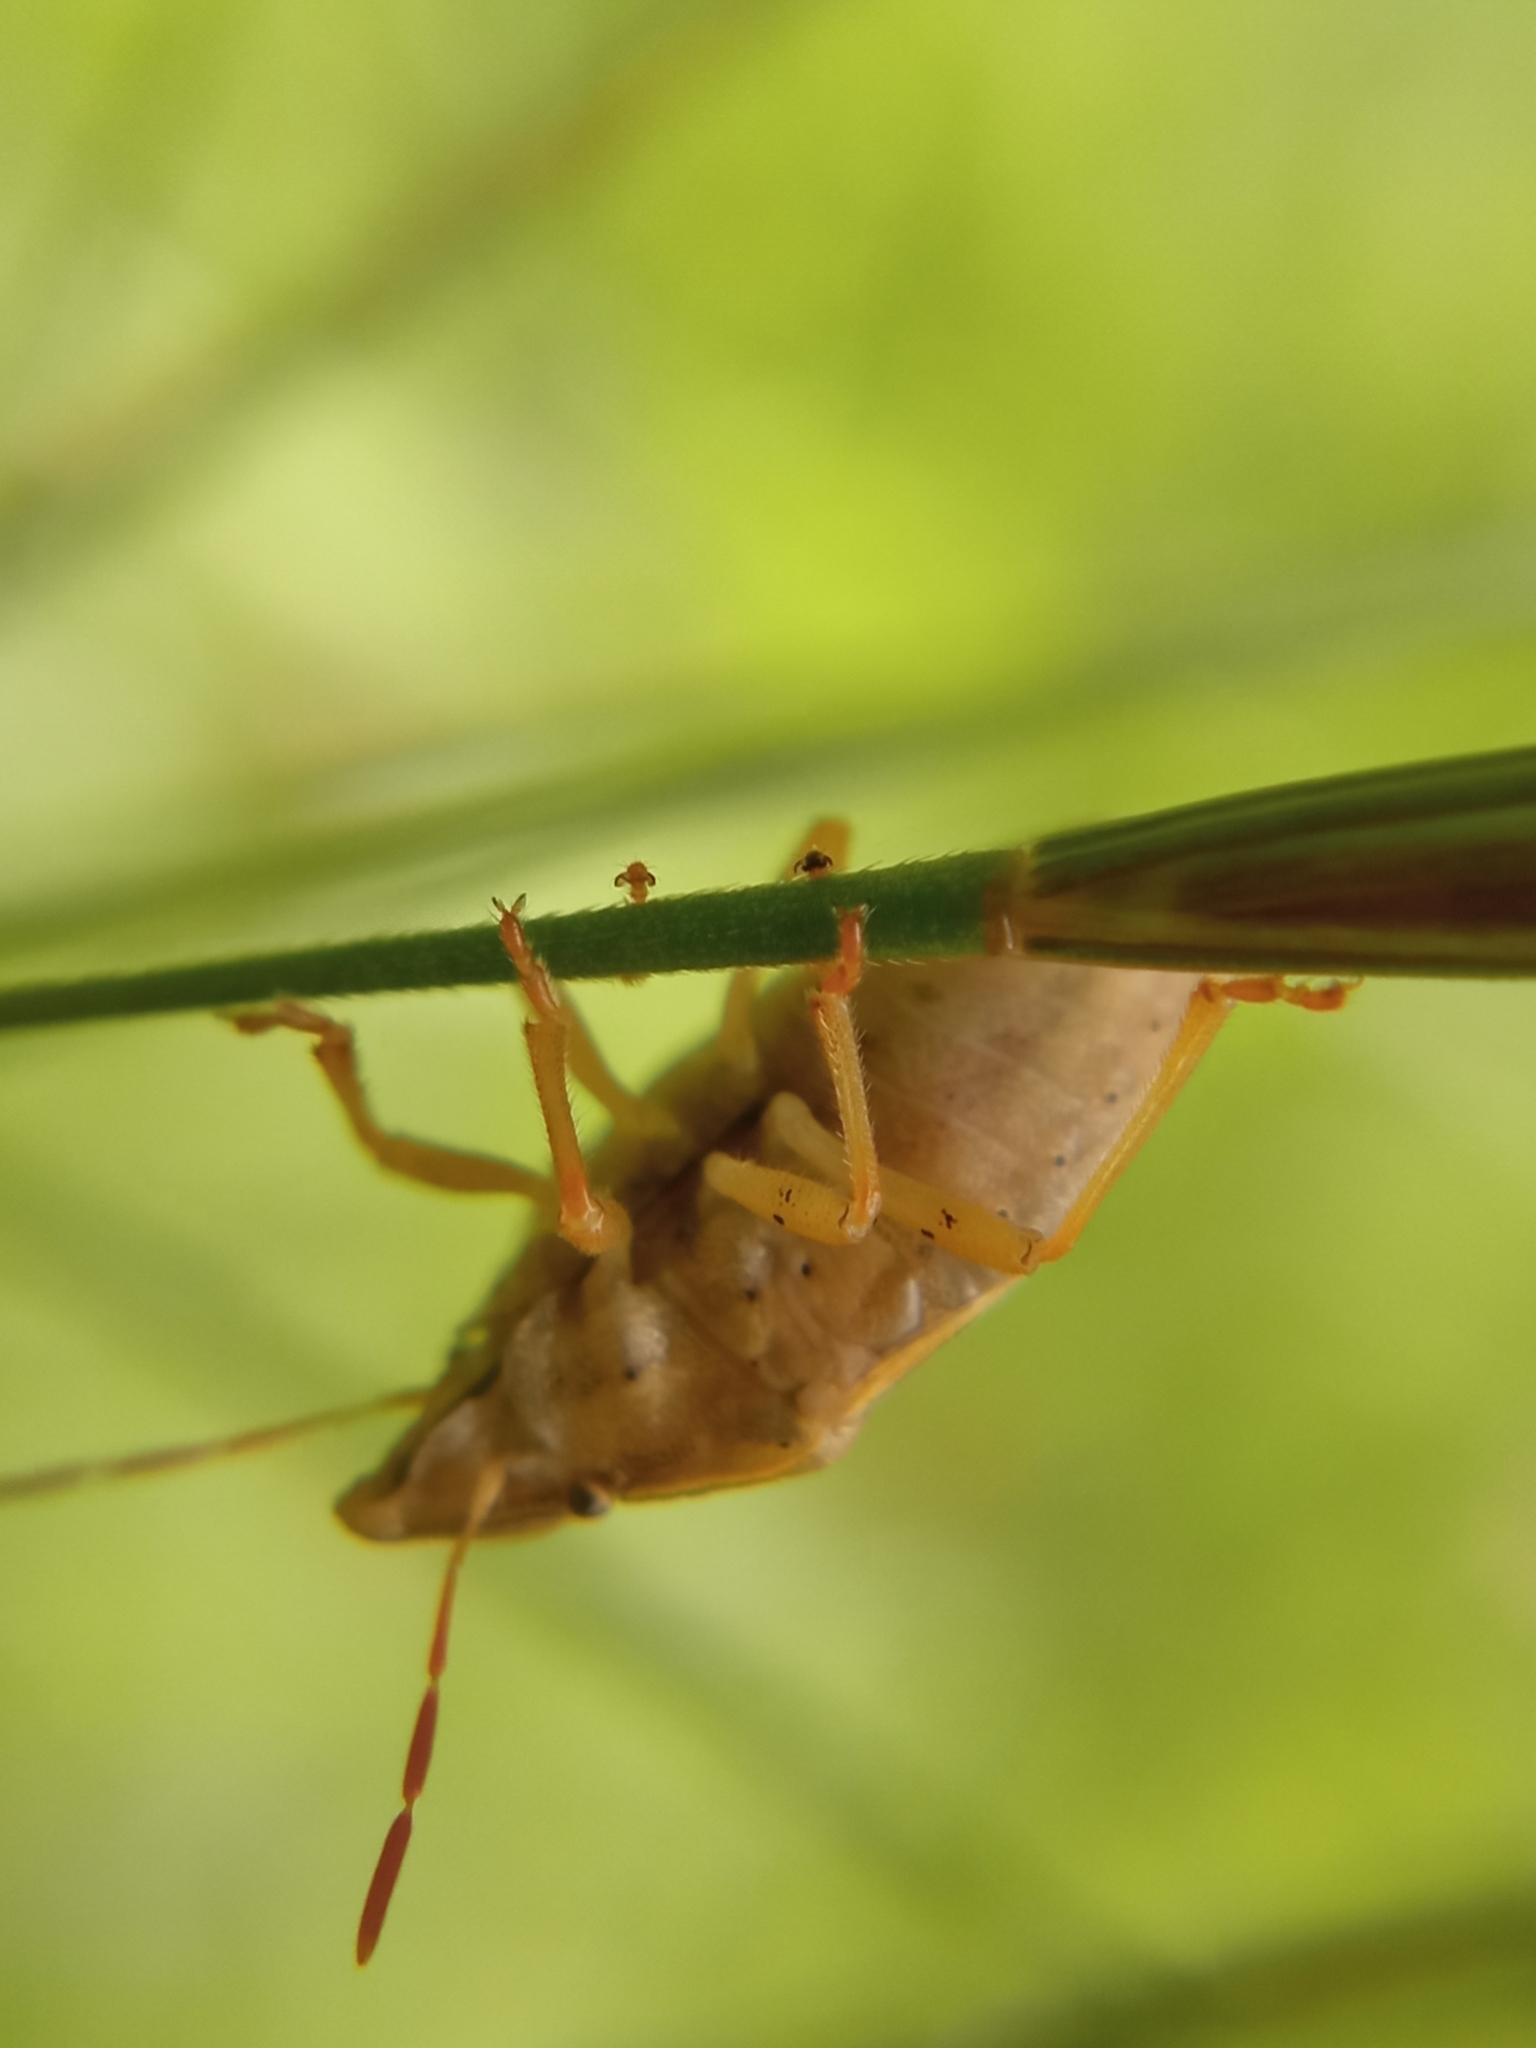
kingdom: Animalia
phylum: Arthropoda
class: Insecta
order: Hemiptera
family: Pentatomidae
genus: Aelia
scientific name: Aelia acuminata
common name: Bishop's mitre
